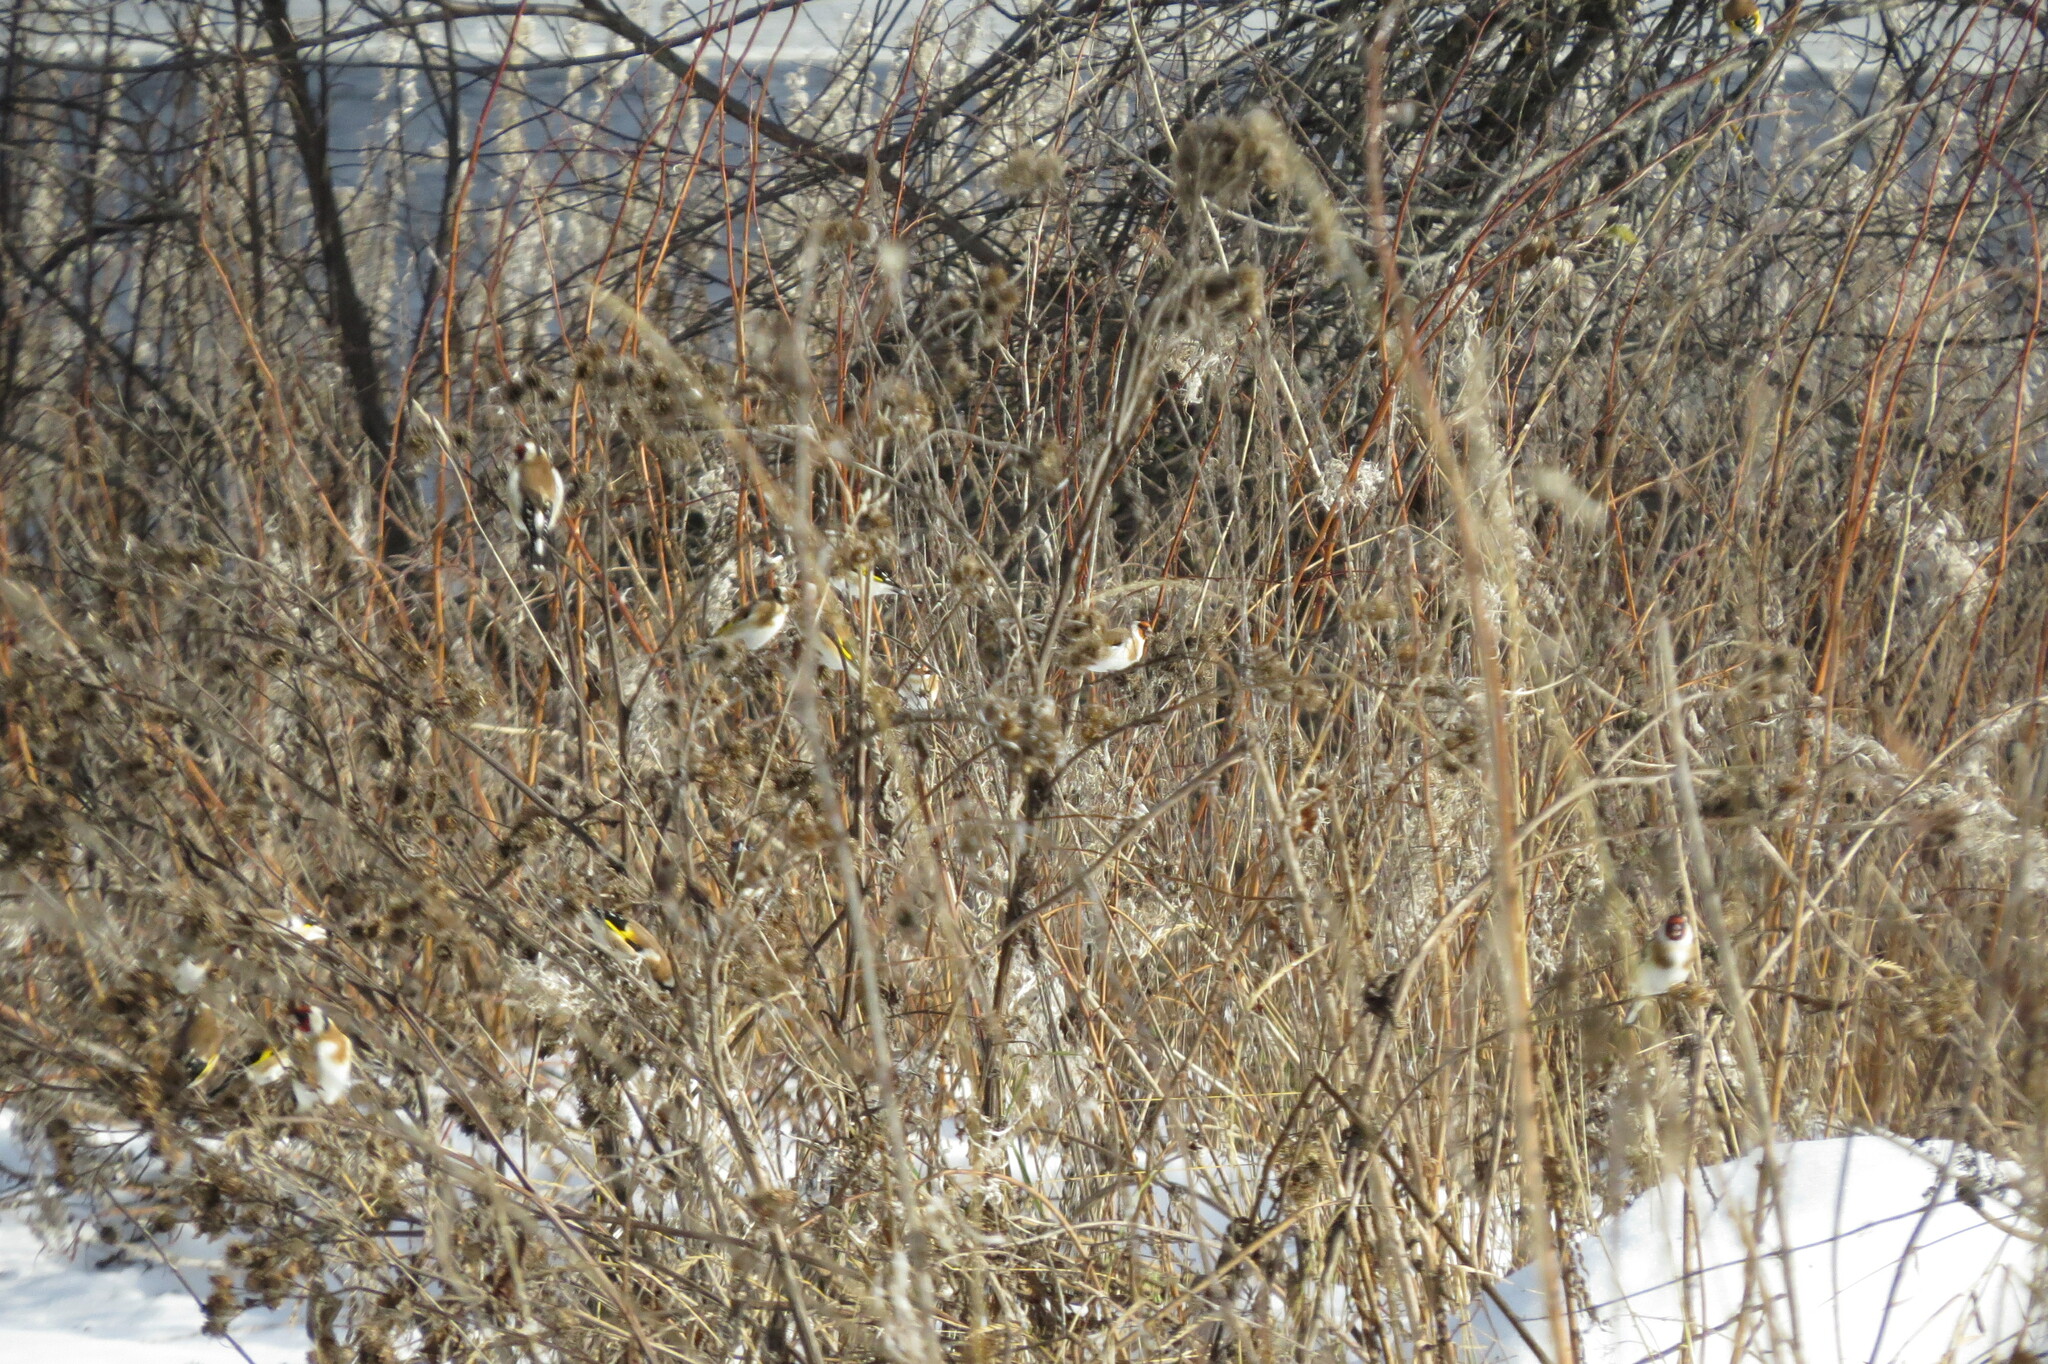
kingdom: Animalia
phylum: Chordata
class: Aves
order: Passeriformes
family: Fringillidae
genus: Carduelis
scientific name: Carduelis carduelis
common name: European goldfinch
